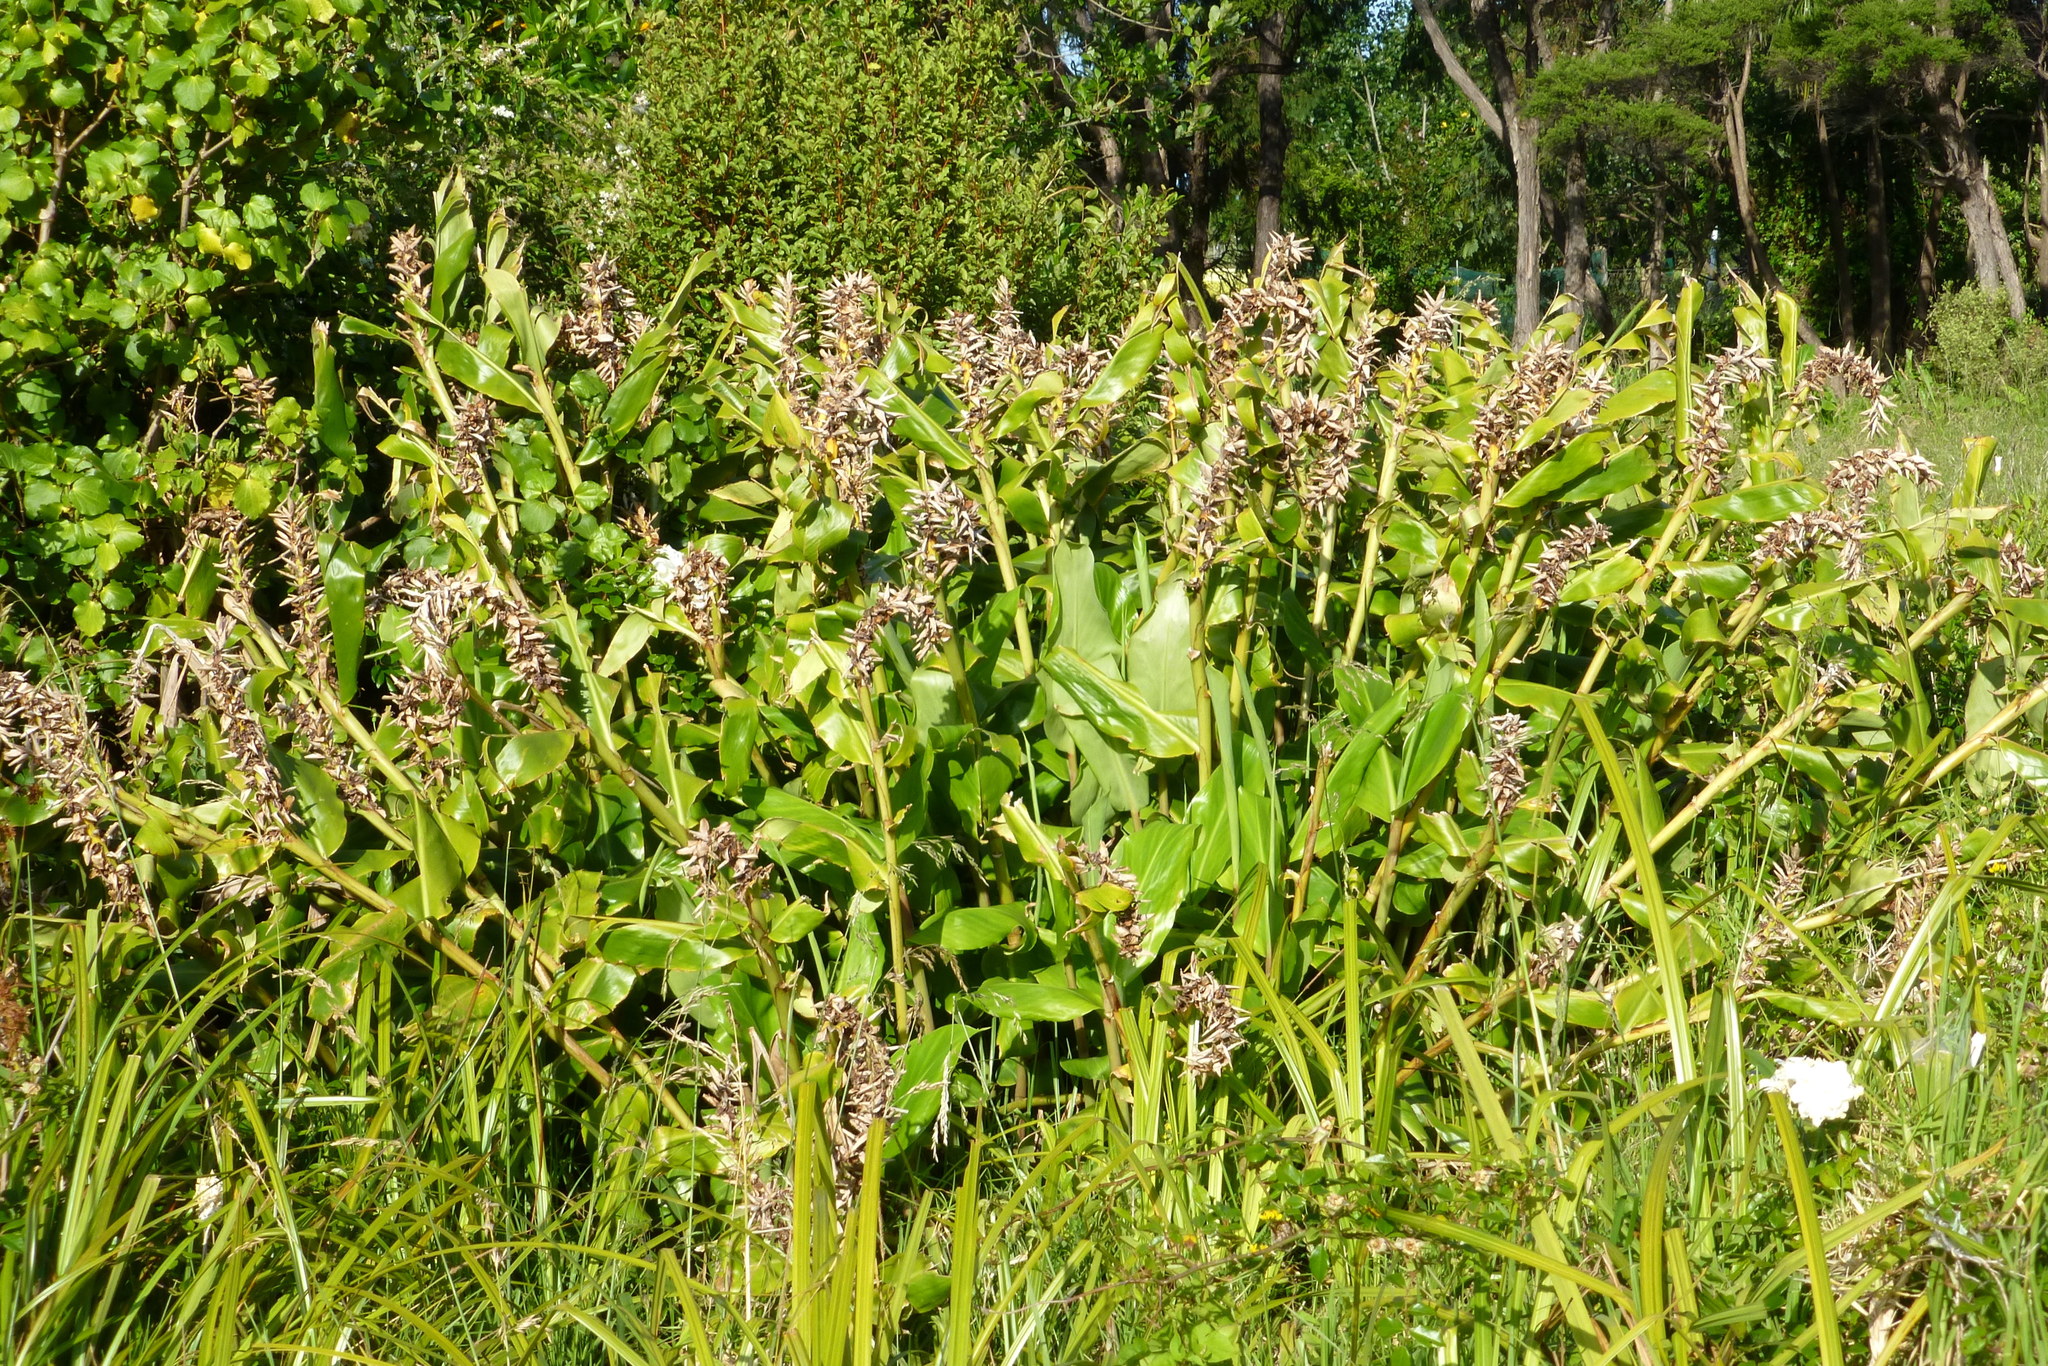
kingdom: Plantae
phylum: Tracheophyta
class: Liliopsida
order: Zingiberales
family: Zingiberaceae
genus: Hedychium
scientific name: Hedychium gardnerianum
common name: Himalayan ginger
